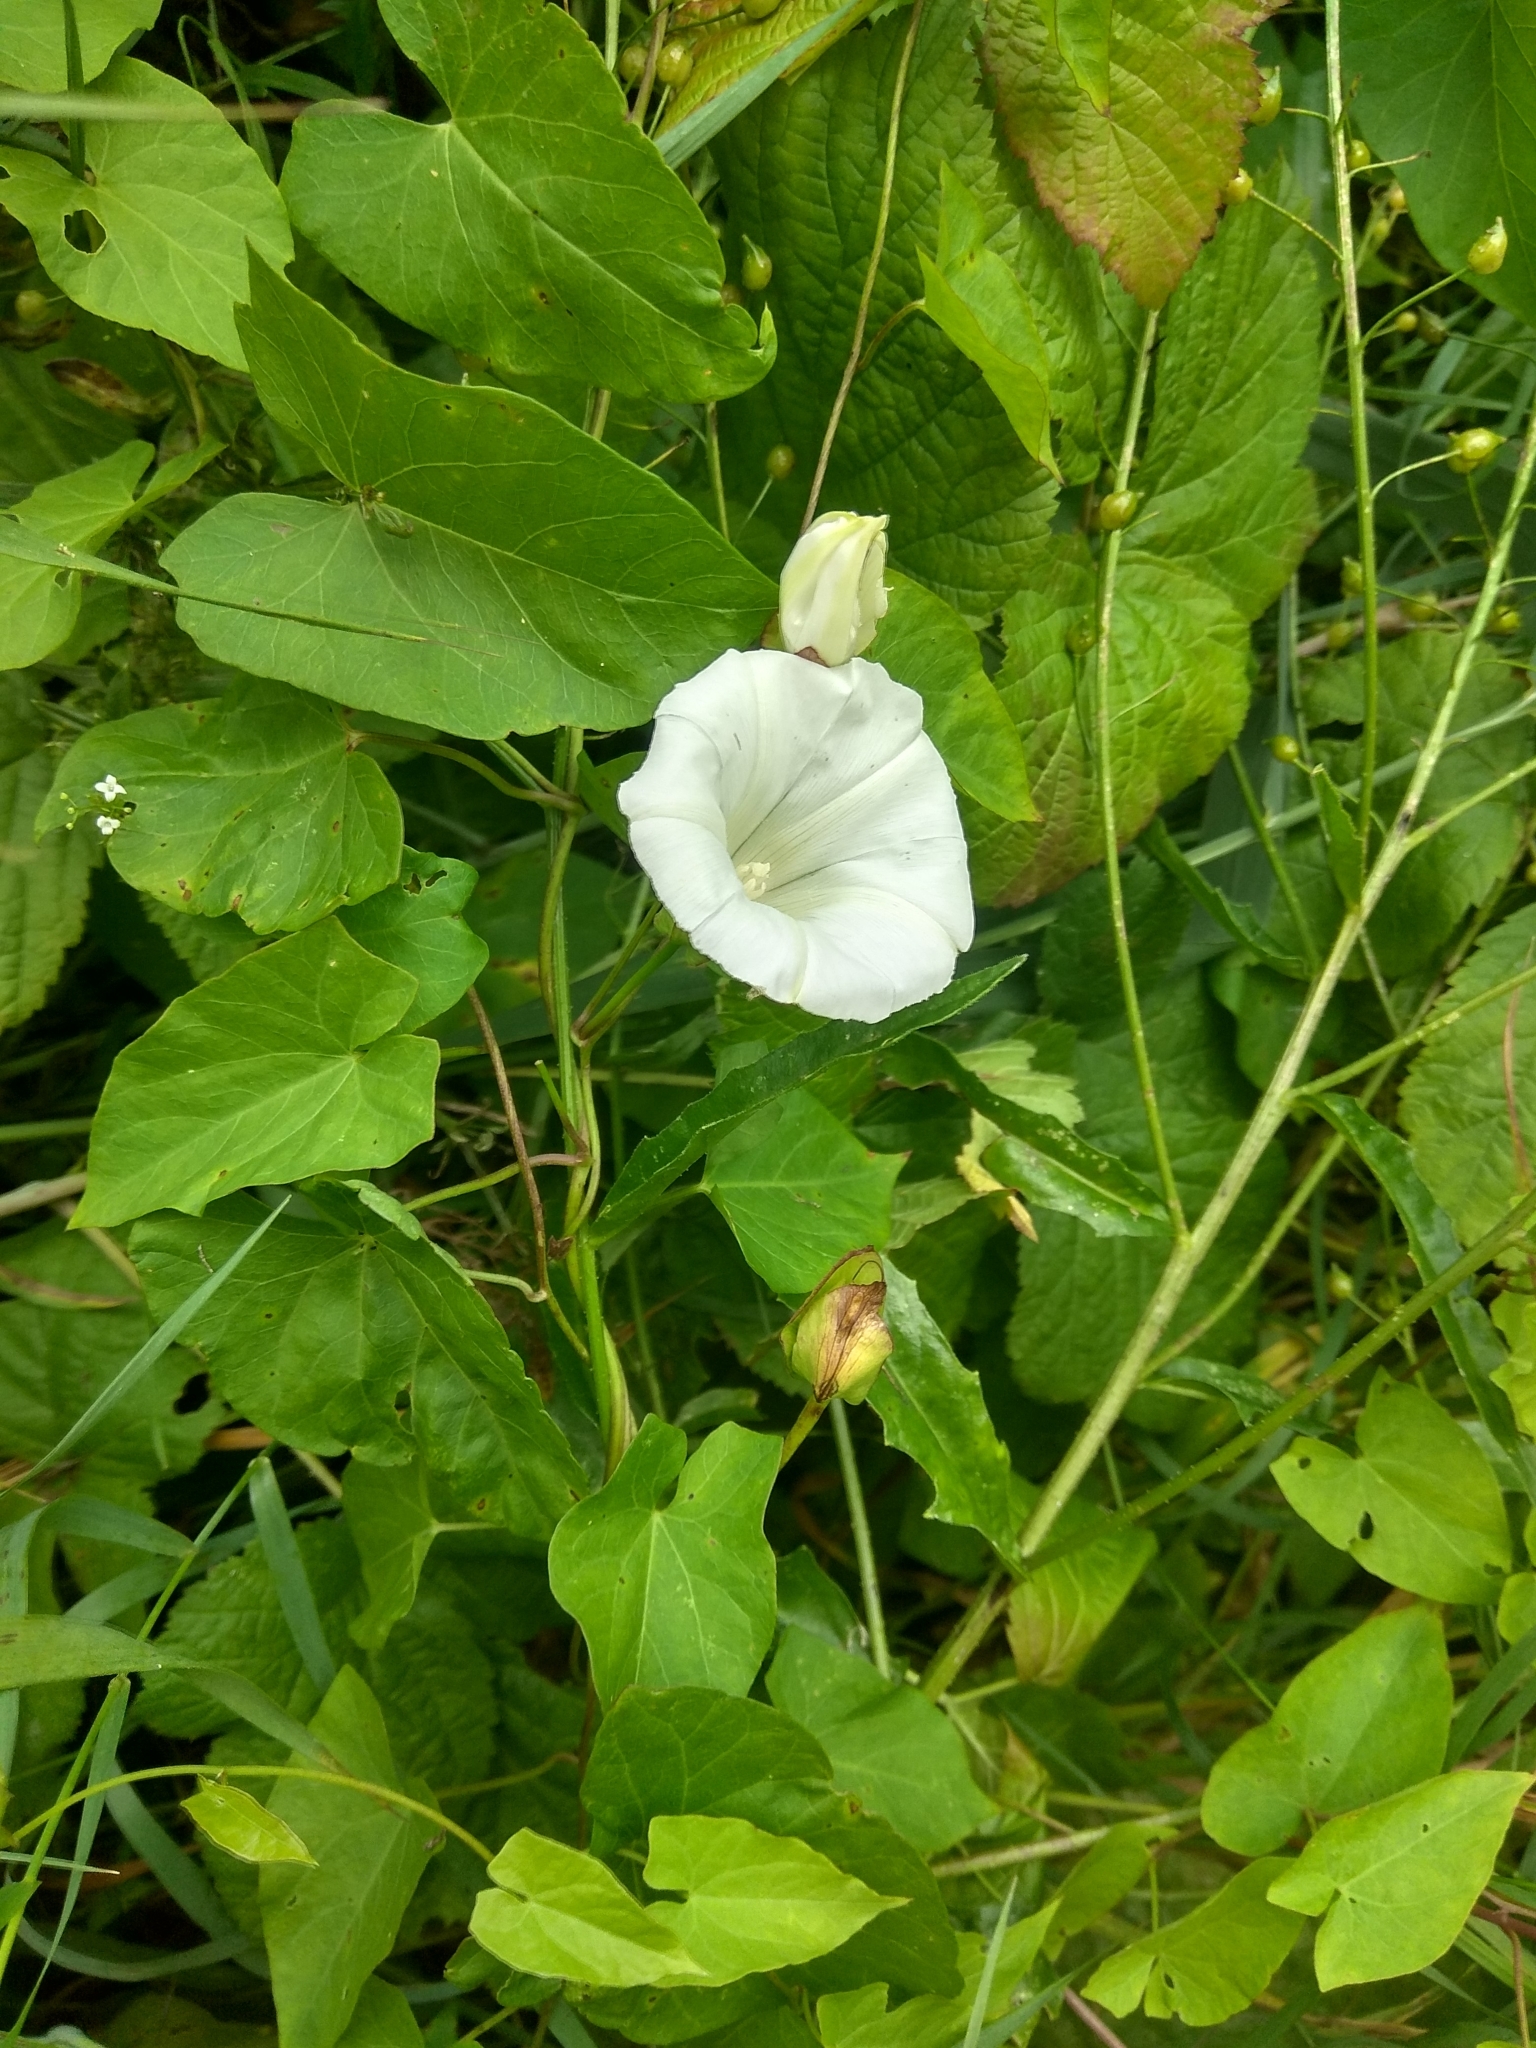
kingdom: Plantae
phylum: Tracheophyta
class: Magnoliopsida
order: Solanales
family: Convolvulaceae
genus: Calystegia
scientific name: Calystegia sepium
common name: Hedge bindweed
